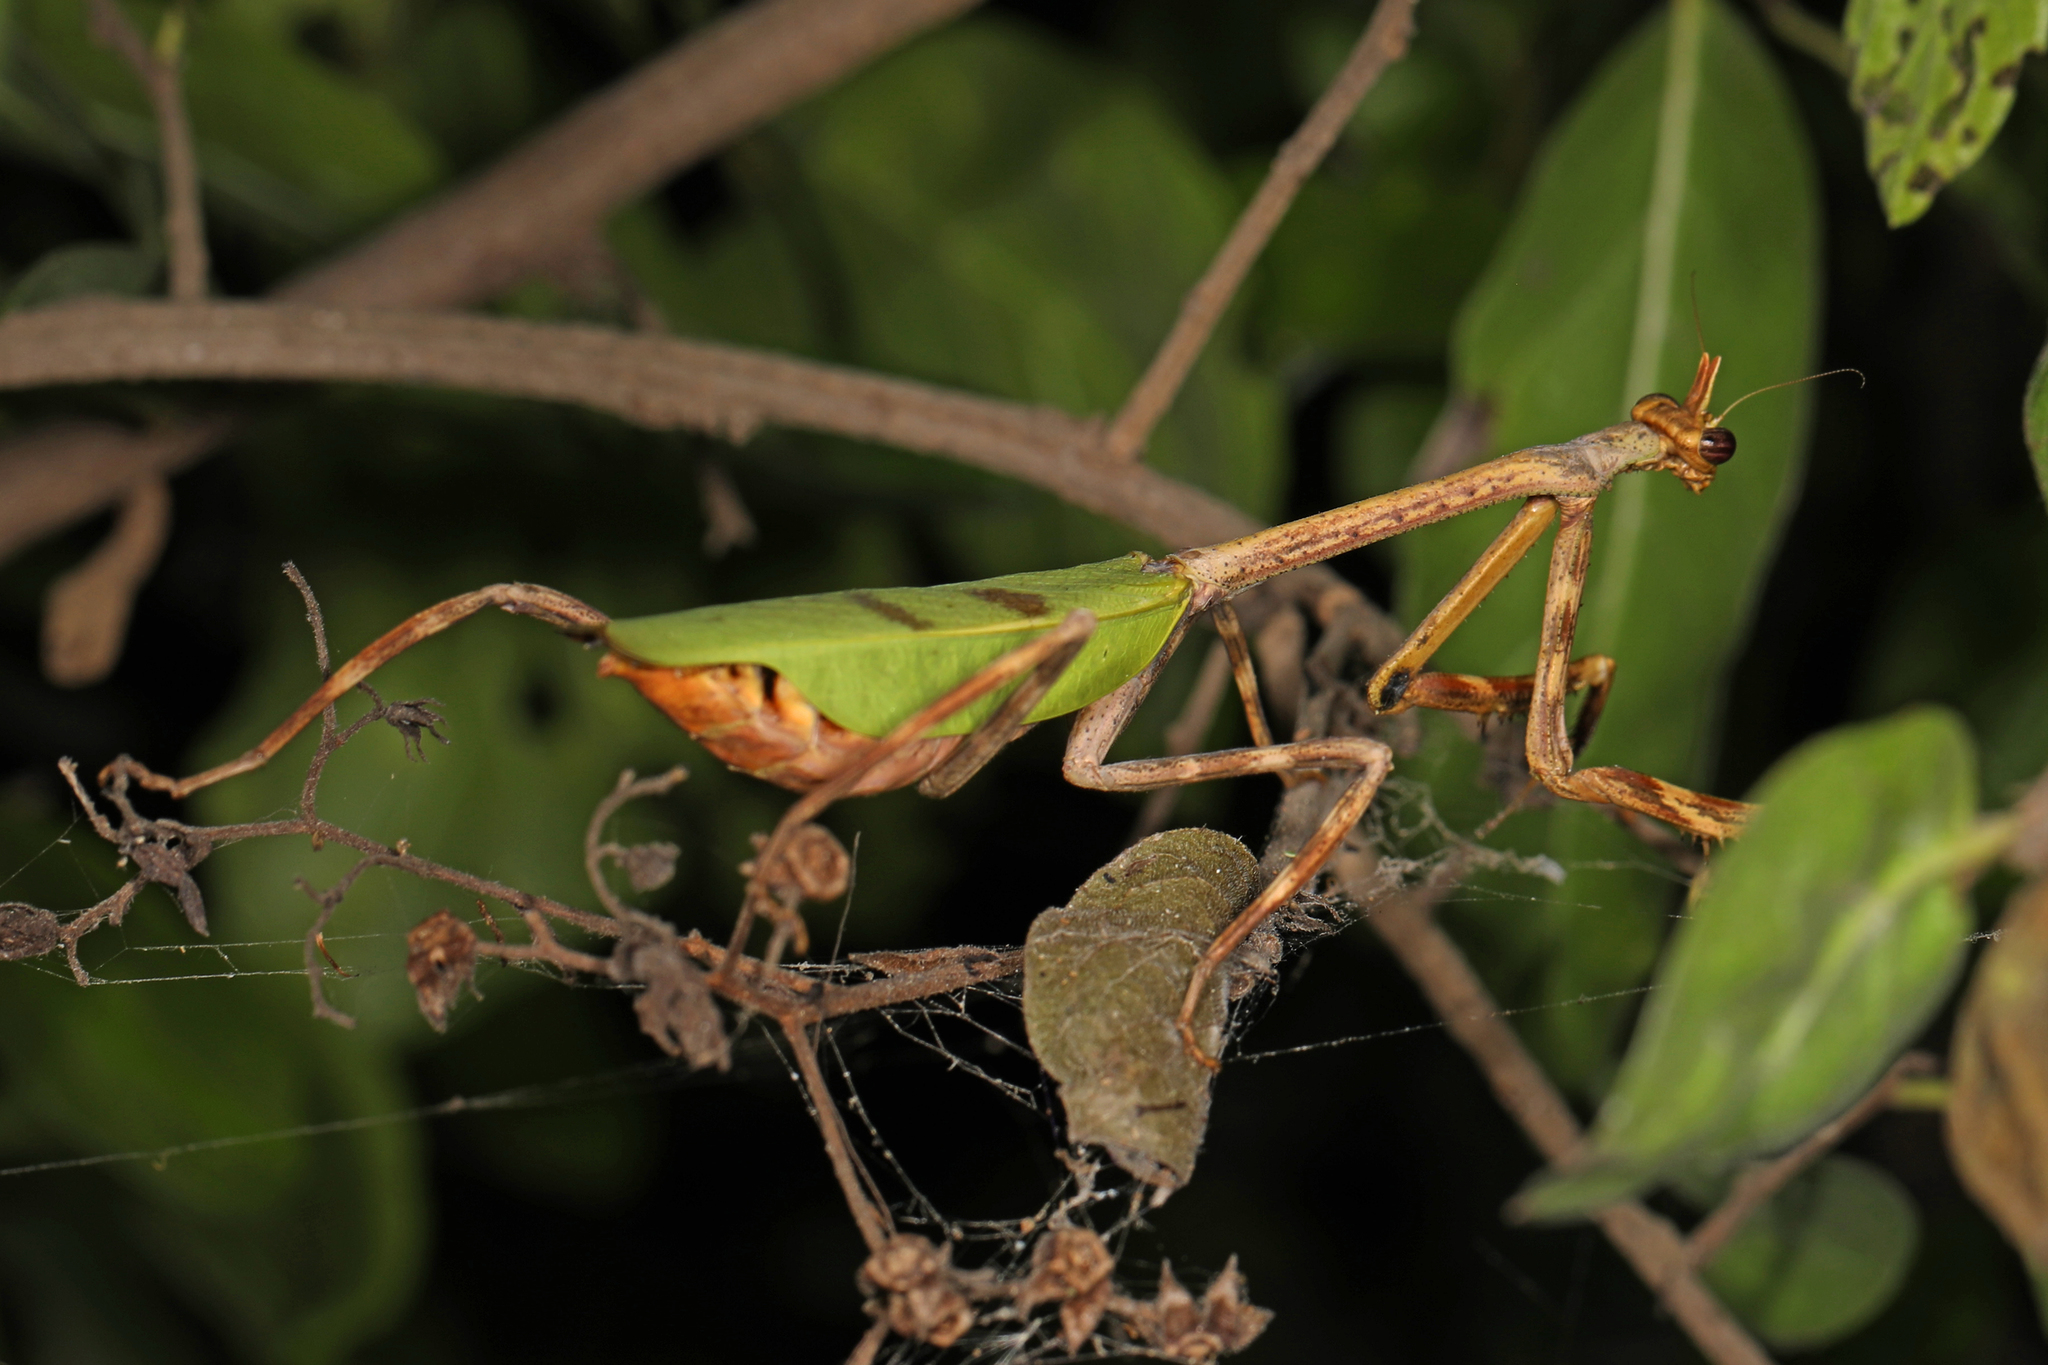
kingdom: Animalia
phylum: Arthropoda
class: Insecta
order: Mantodea
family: Mantidae
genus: Pseudovates
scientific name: Pseudovates chlorophaea
